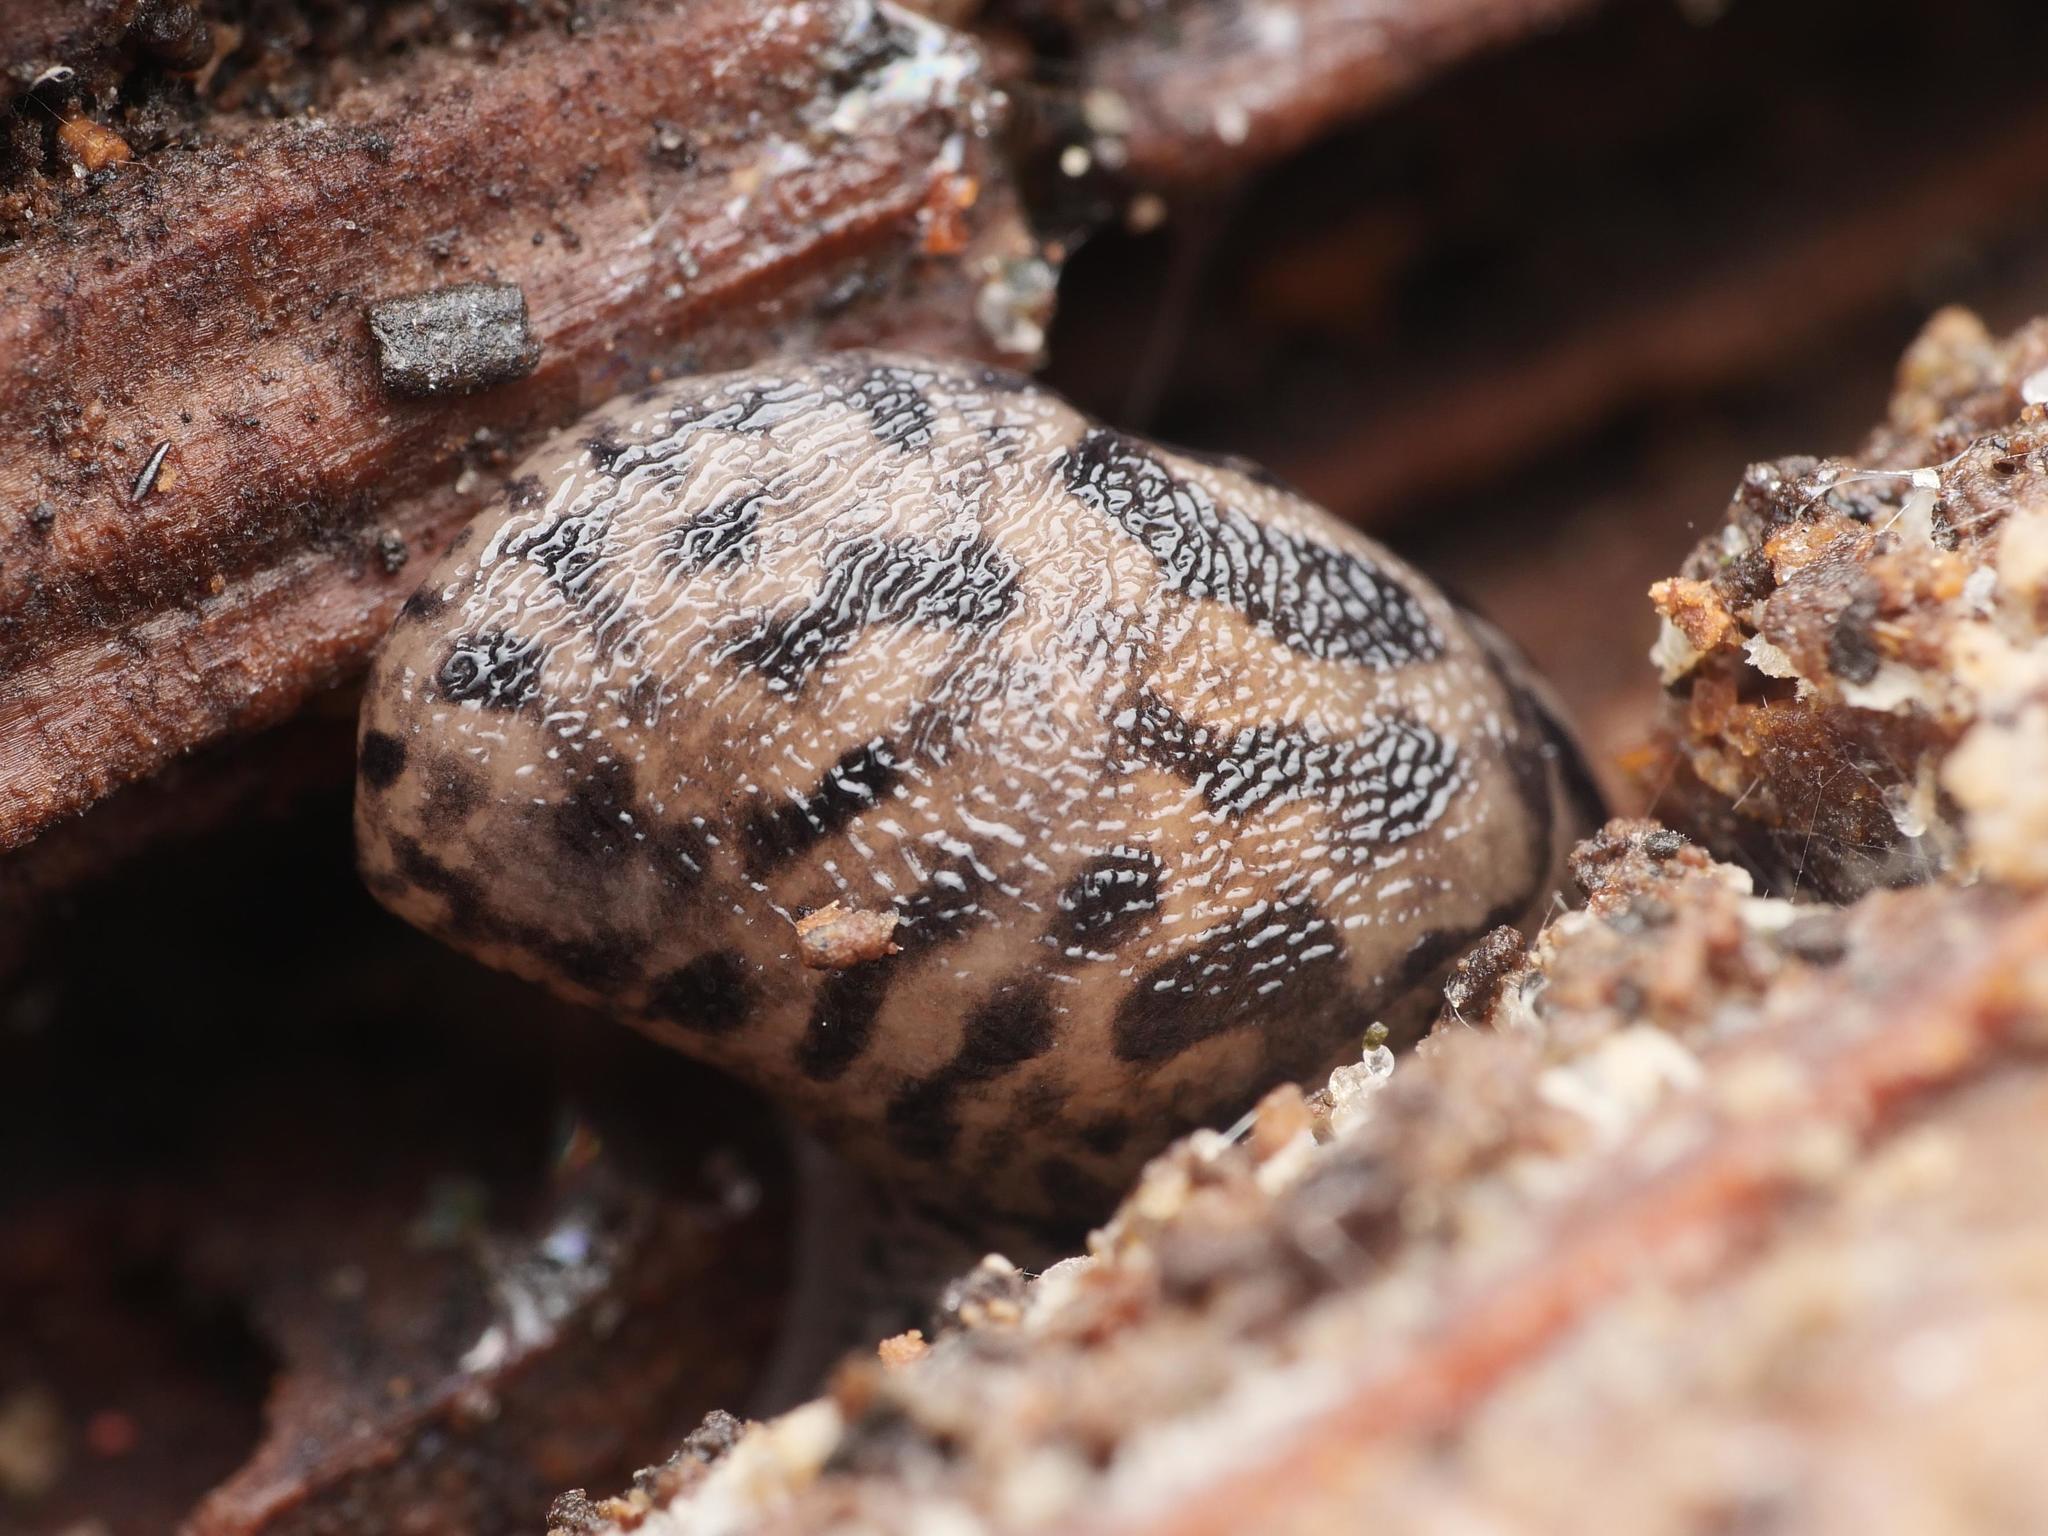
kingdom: Animalia
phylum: Mollusca
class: Gastropoda
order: Stylommatophora
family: Limacidae
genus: Limax
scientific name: Limax maximus
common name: Great grey slug
